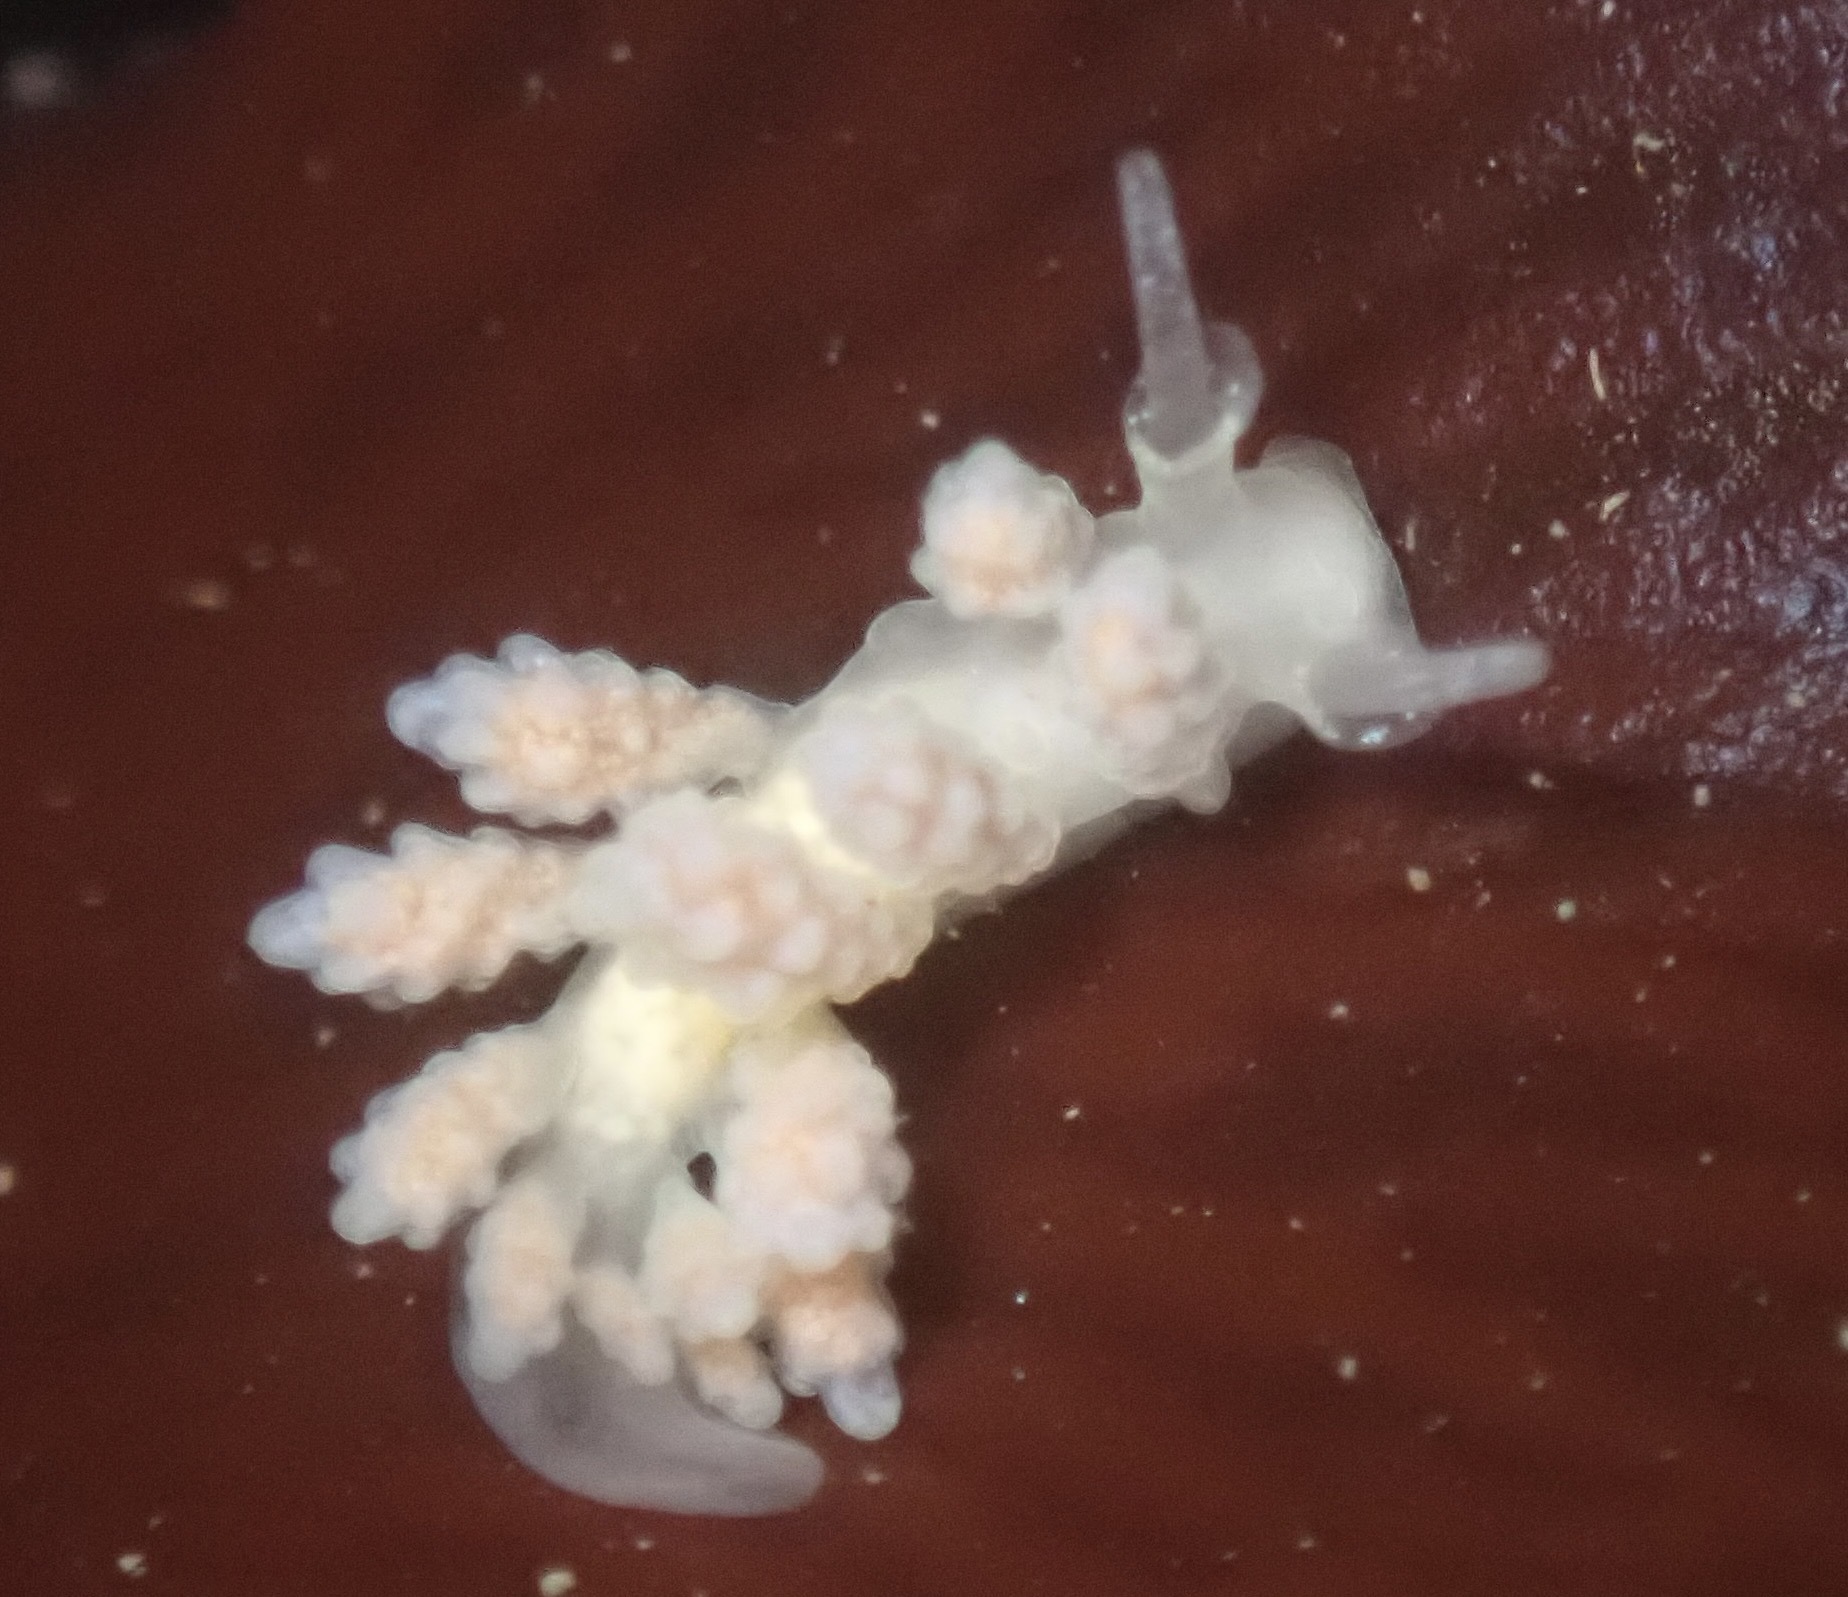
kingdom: Animalia
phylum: Mollusca
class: Gastropoda
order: Nudibranchia
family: Dotidae
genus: Doto
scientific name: Doto amyra
